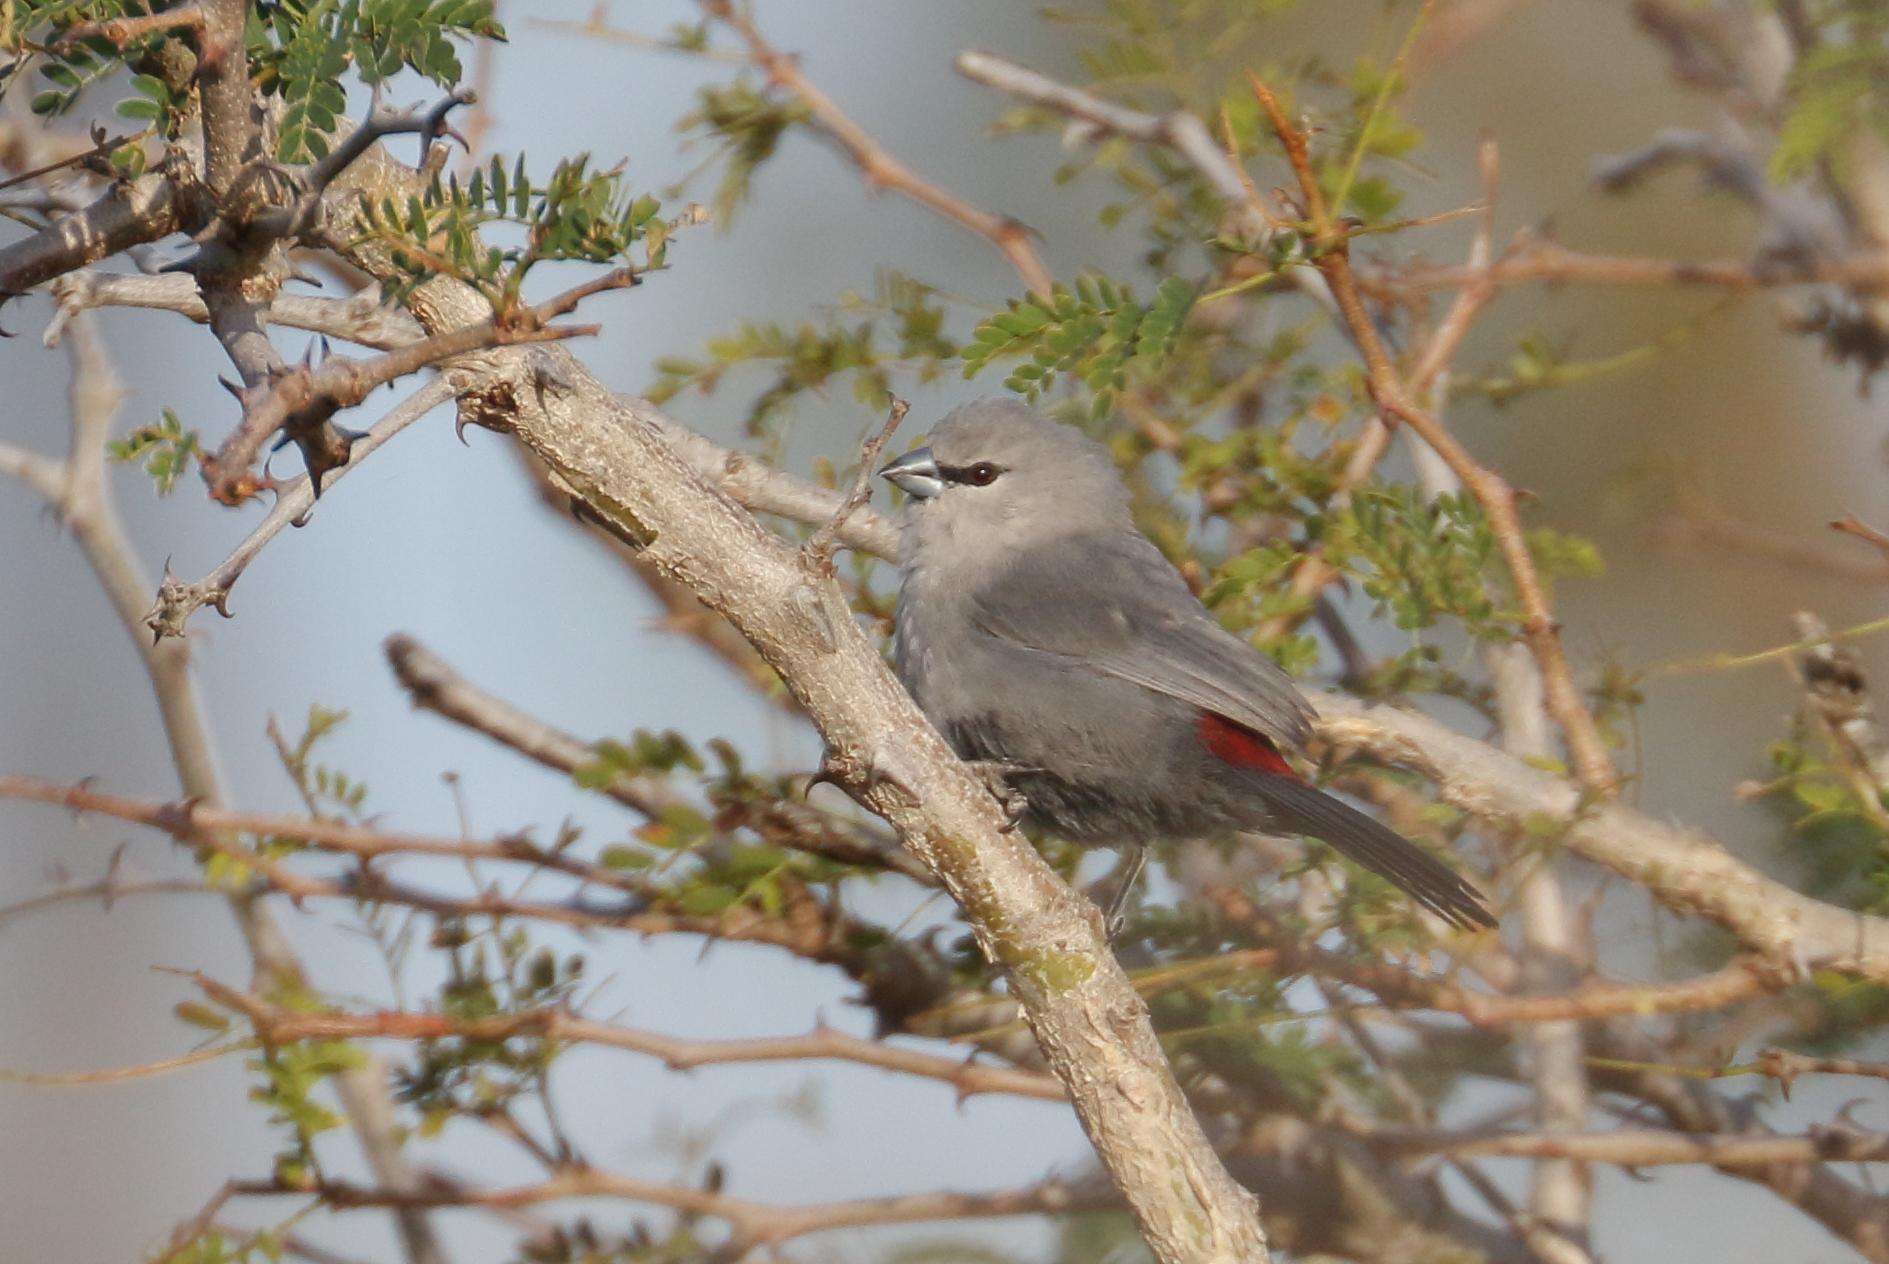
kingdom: Animalia
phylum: Chordata
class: Aves
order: Passeriformes
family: Estrildidae
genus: Estrilda
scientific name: Estrilda perreini
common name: Grey waxbill
